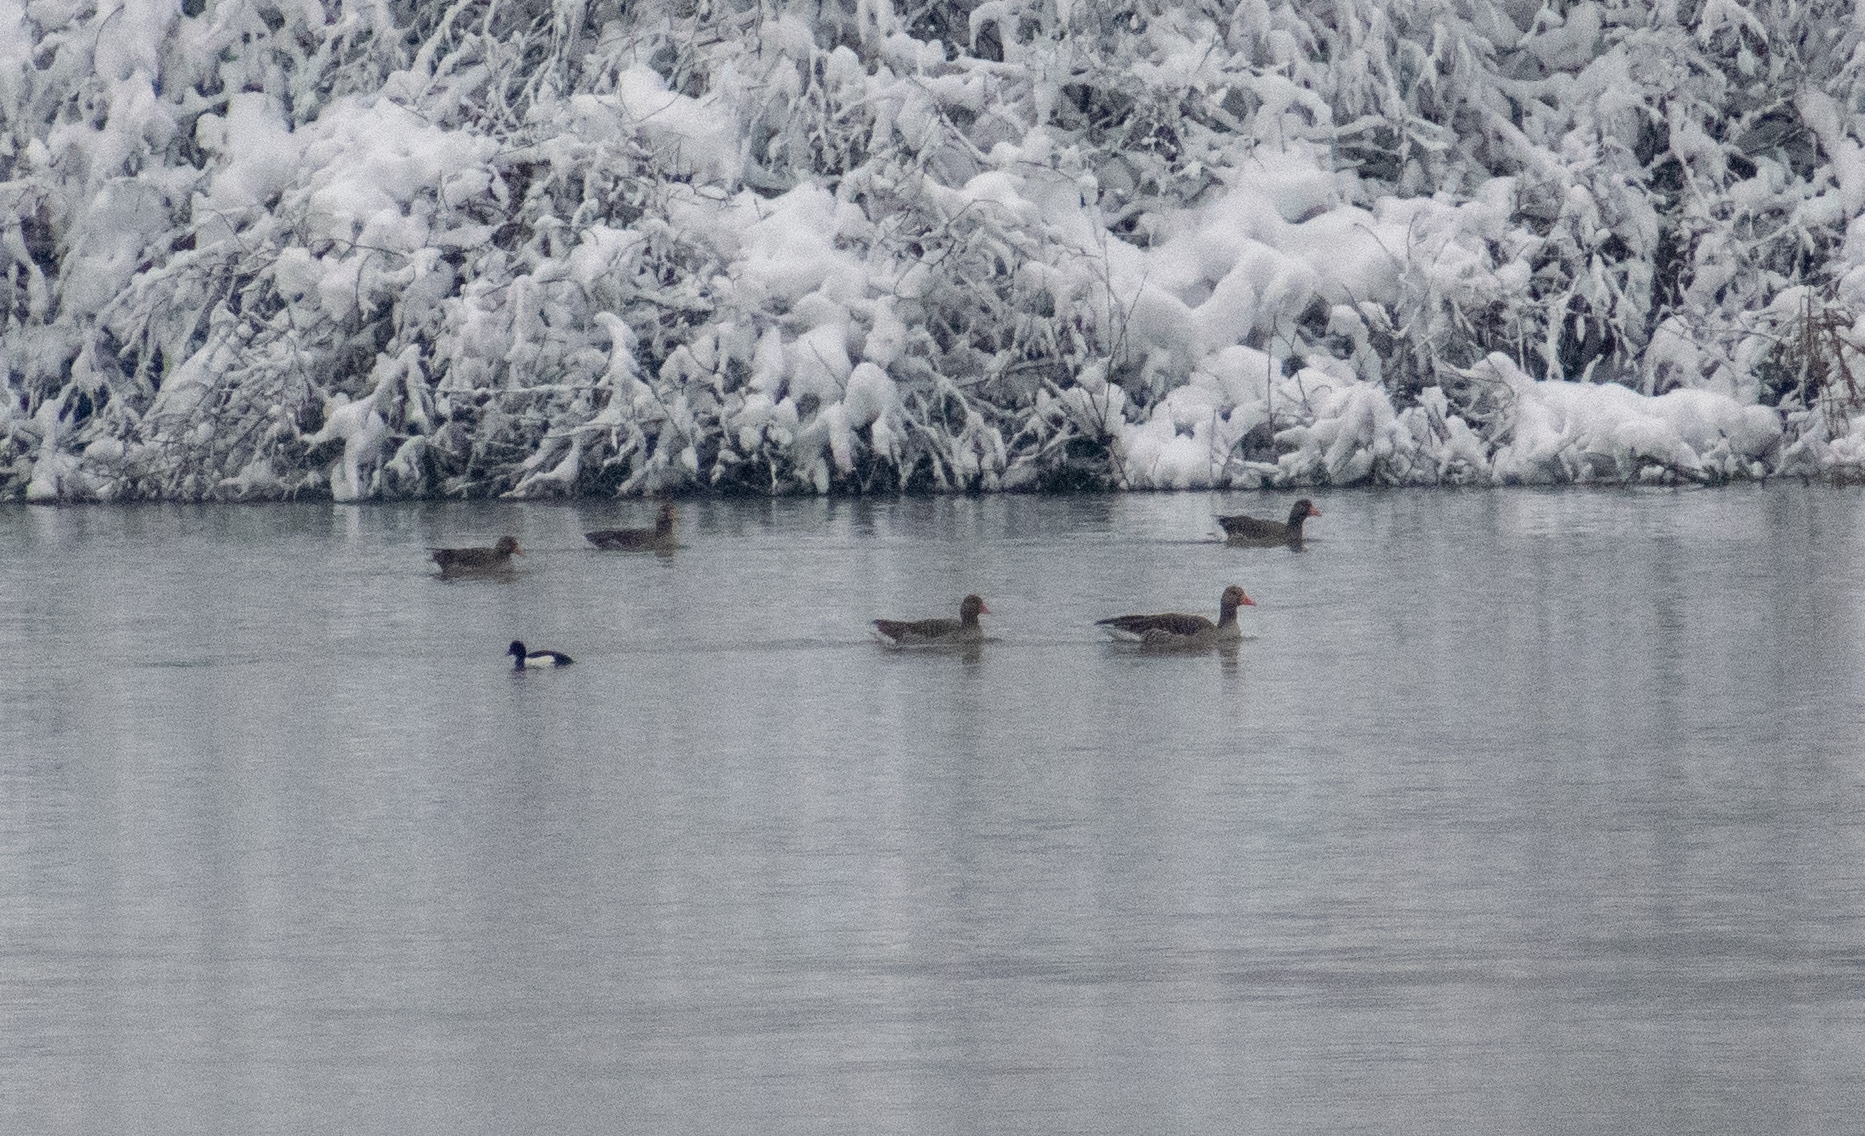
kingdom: Animalia
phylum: Chordata
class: Aves
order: Anseriformes
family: Anatidae
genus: Aythya
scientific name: Aythya fuligula
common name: Tufted duck
